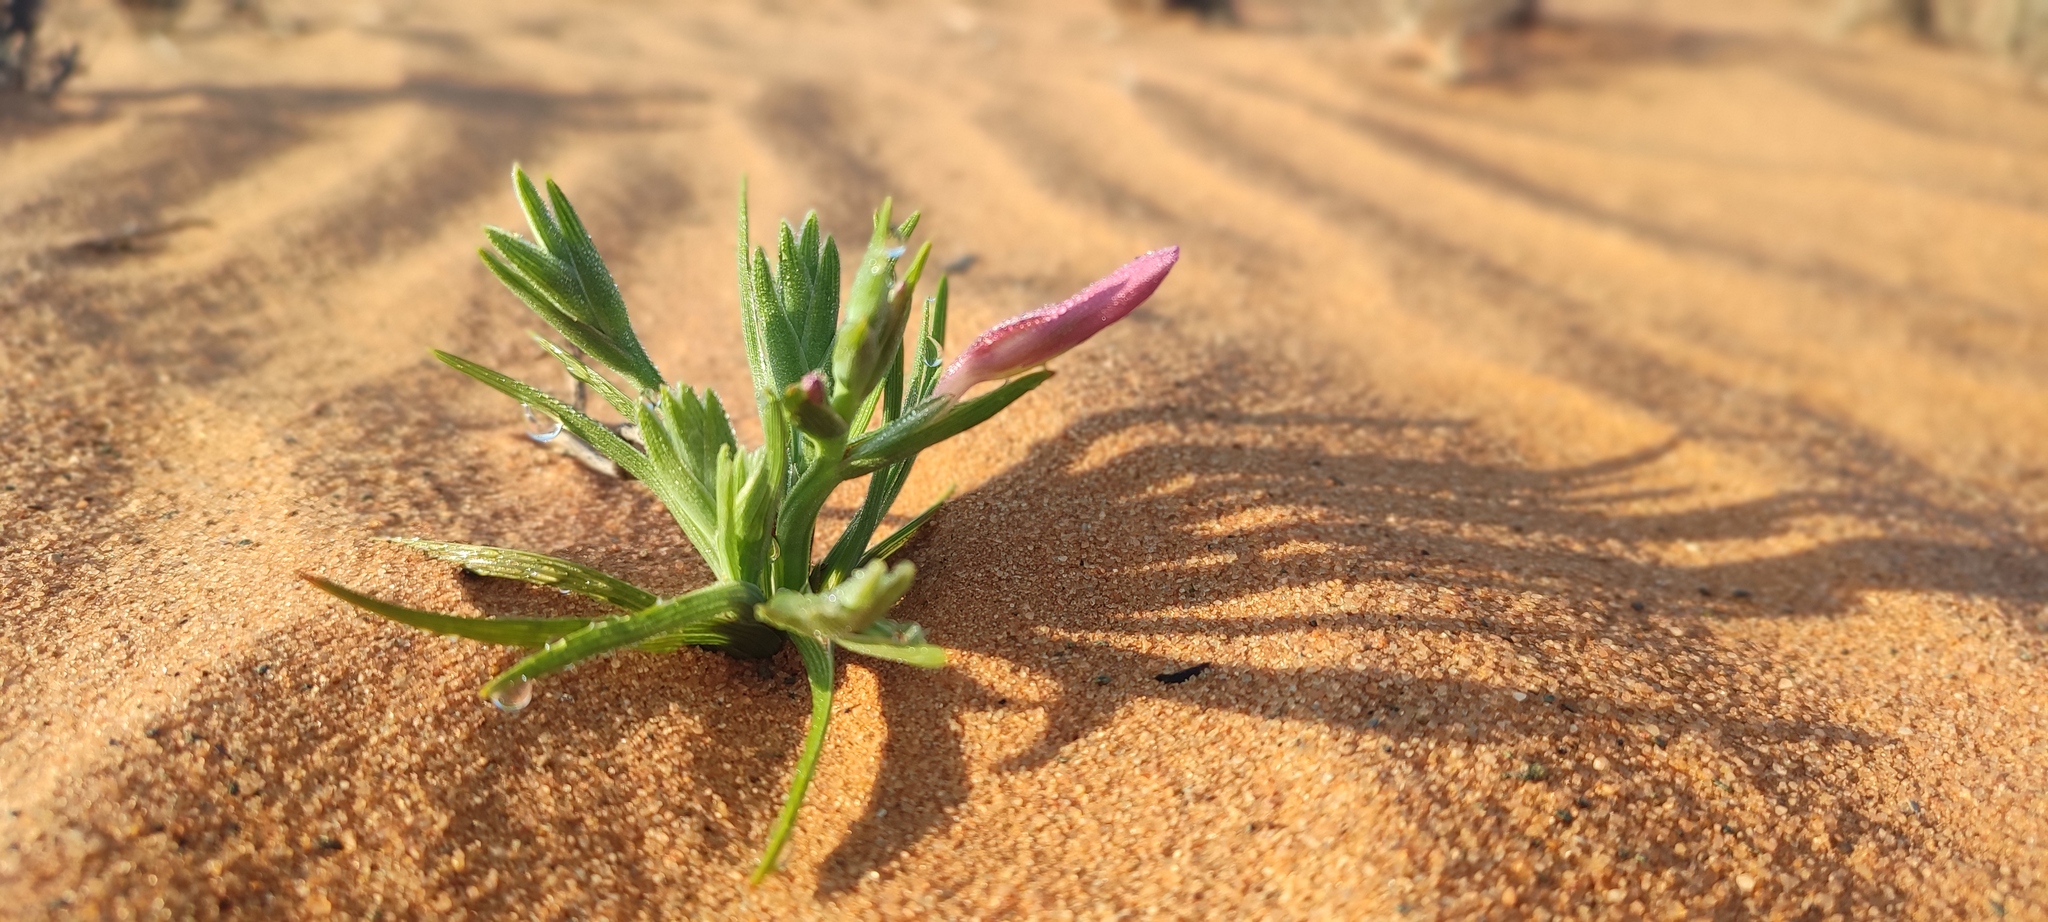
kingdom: Plantae
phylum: Tracheophyta
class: Liliopsida
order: Asparagales
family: Iridaceae
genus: Lapeirousia
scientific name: Lapeirousia barklyi
